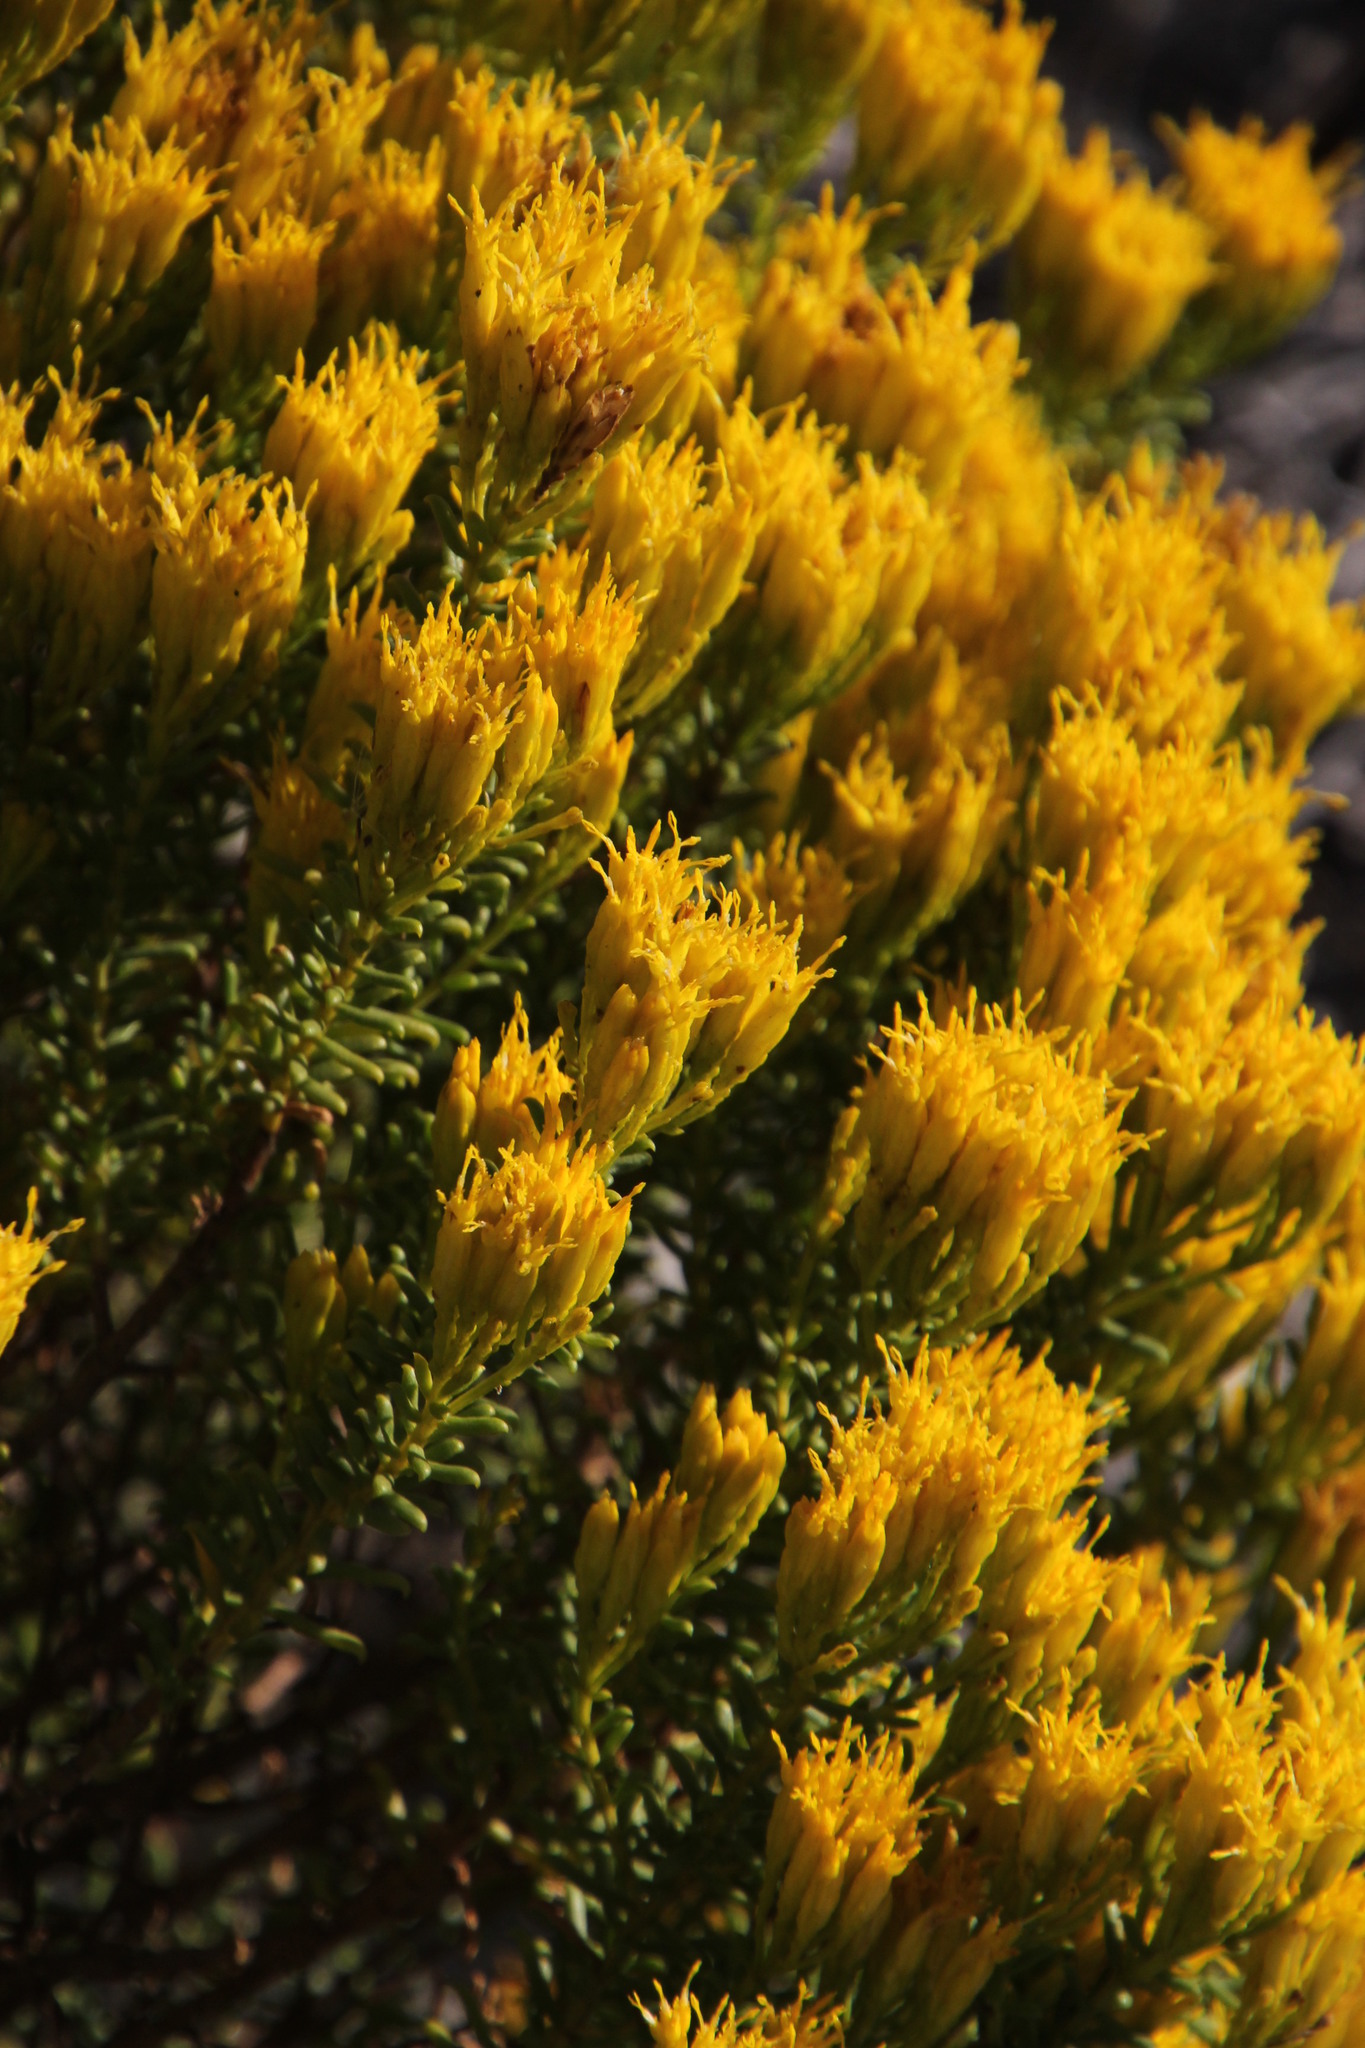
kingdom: Plantae
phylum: Tracheophyta
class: Magnoliopsida
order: Asterales
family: Asteraceae
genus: Pteronia
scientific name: Pteronia uncinata
